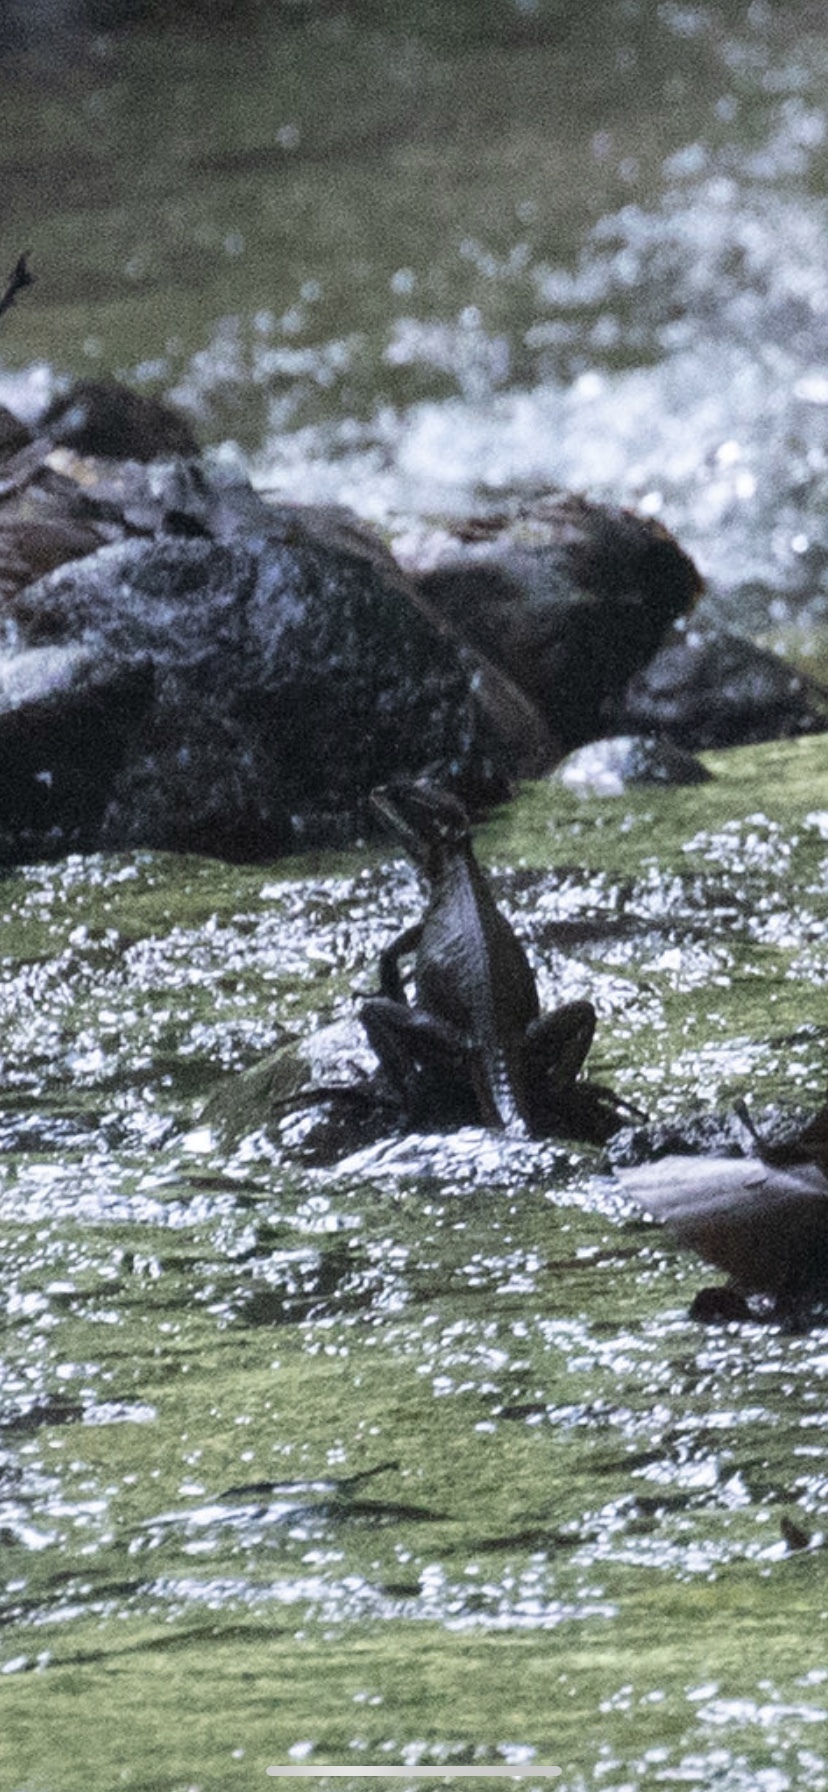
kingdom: Animalia
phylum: Chordata
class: Squamata
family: Corytophanidae
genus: Basiliscus
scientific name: Basiliscus basiliscus
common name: Common basilisk
